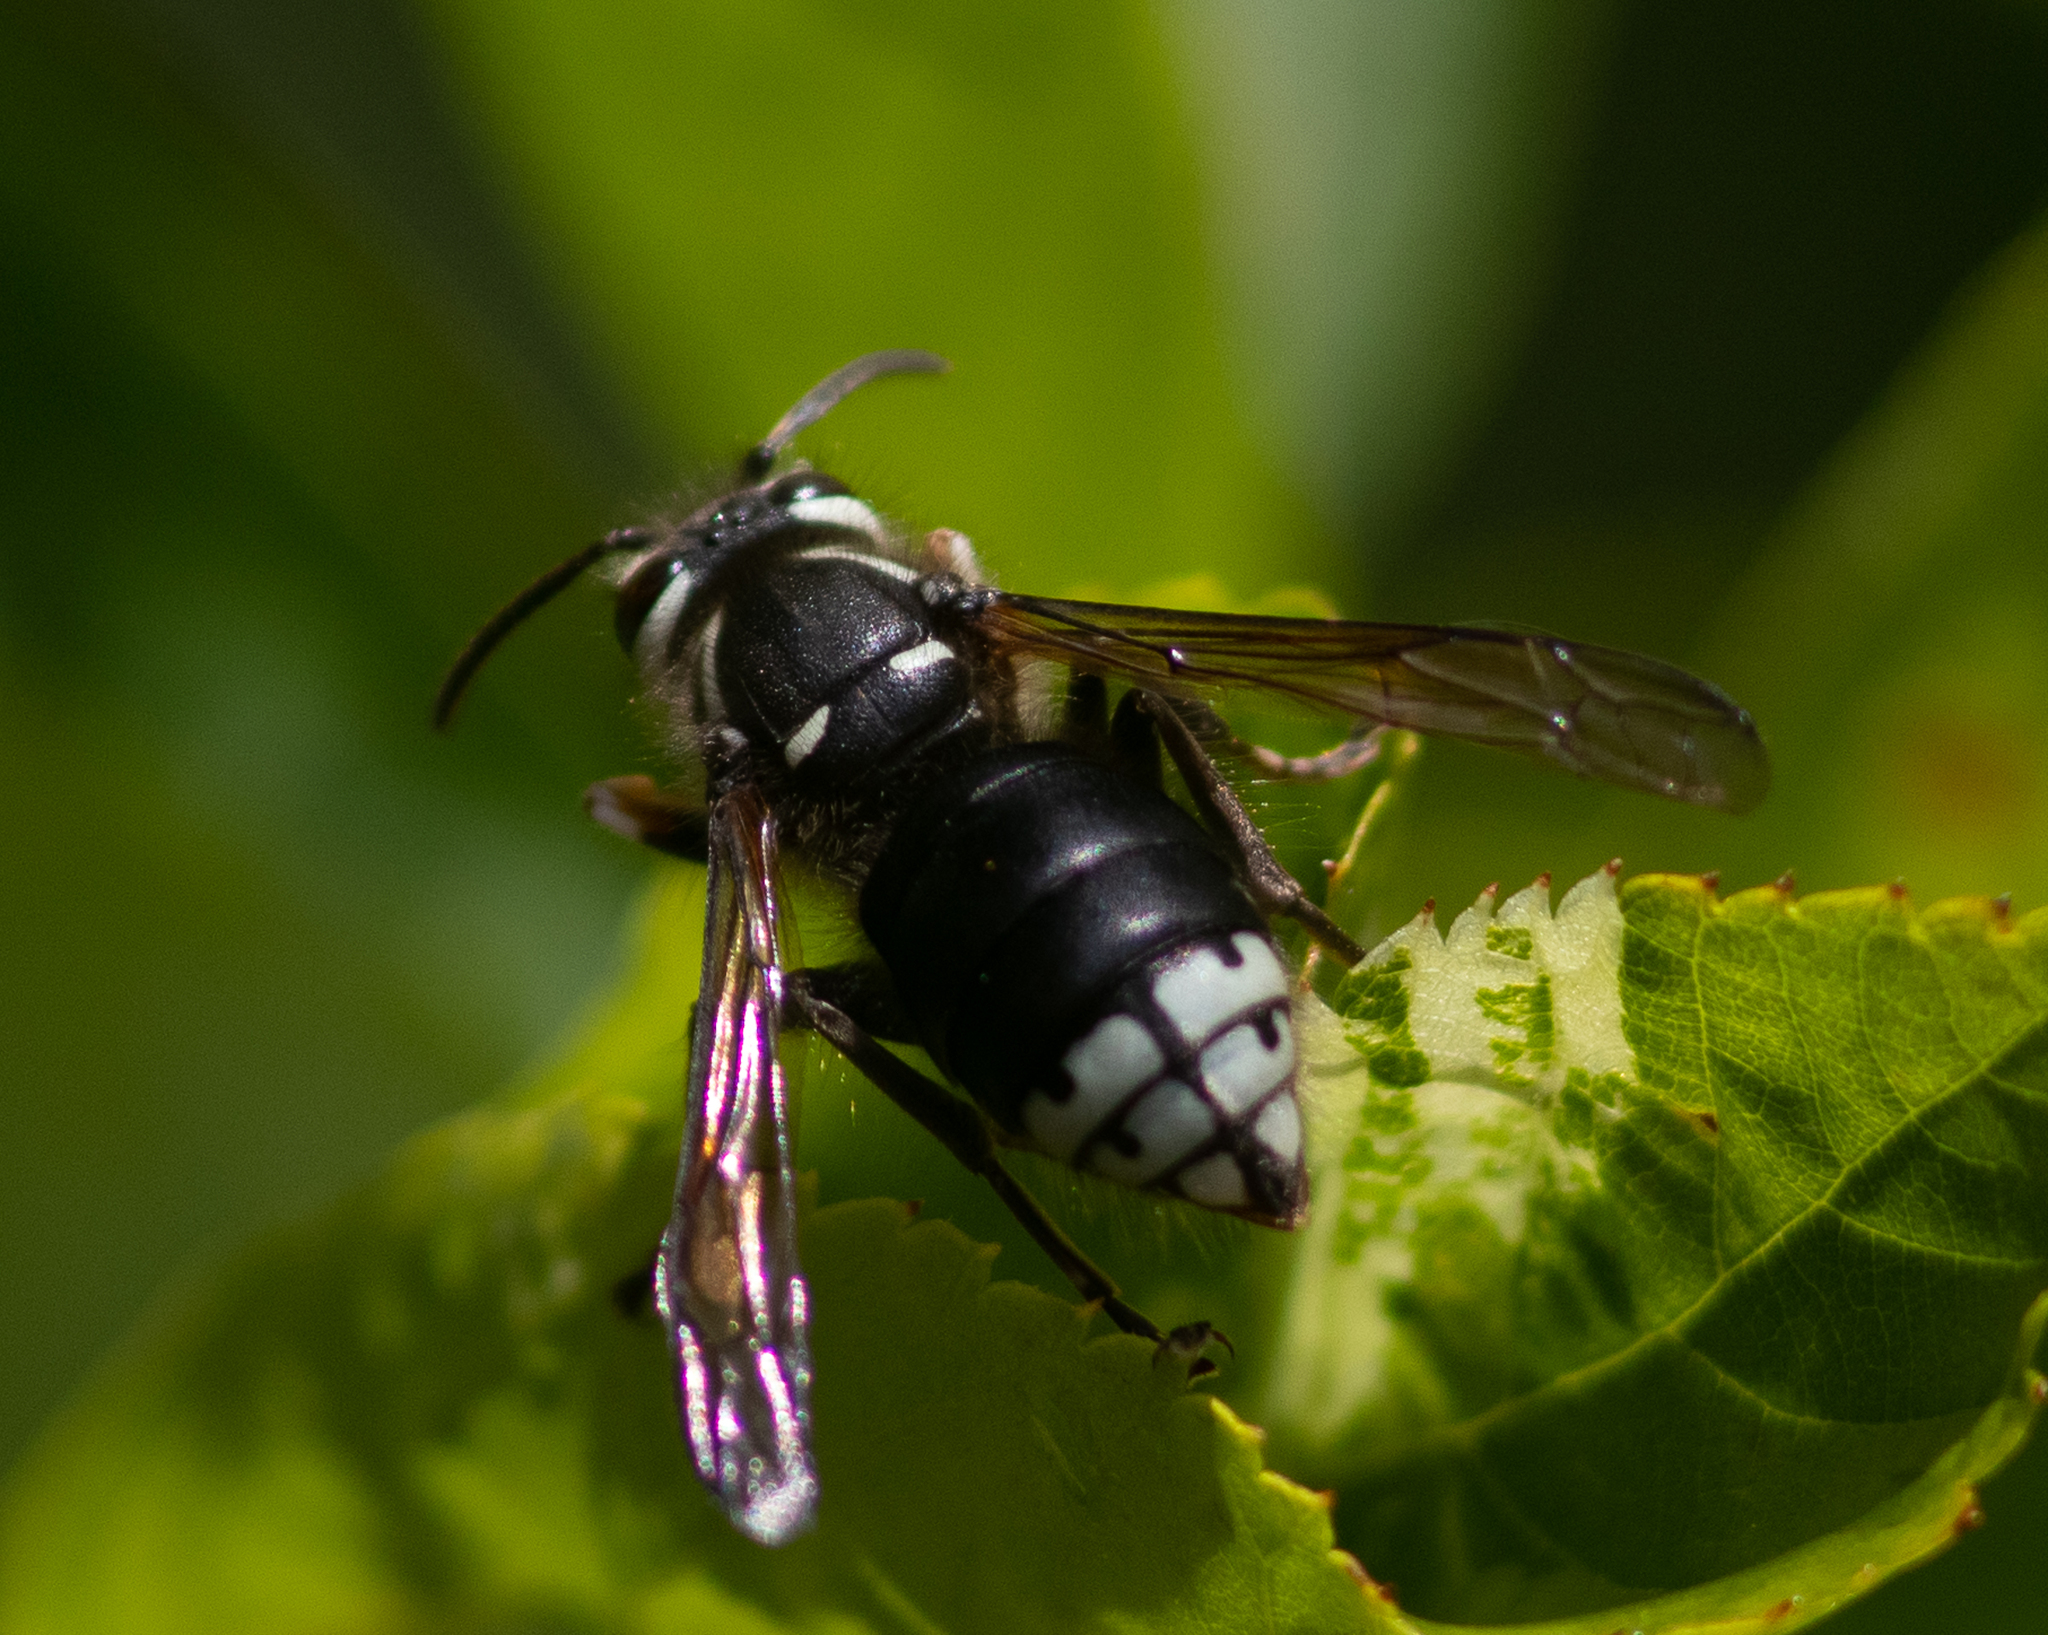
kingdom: Animalia
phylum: Arthropoda
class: Insecta
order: Hymenoptera
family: Vespidae
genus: Dolichovespula
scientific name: Dolichovespula maculata
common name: Bald-faced hornet
